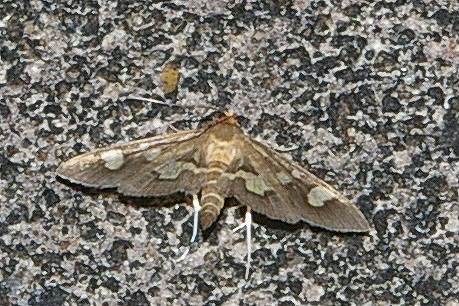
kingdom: Animalia
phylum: Arthropoda
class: Insecta
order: Lepidoptera
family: Crambidae
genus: Uresiphita
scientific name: Uresiphita tricolor
